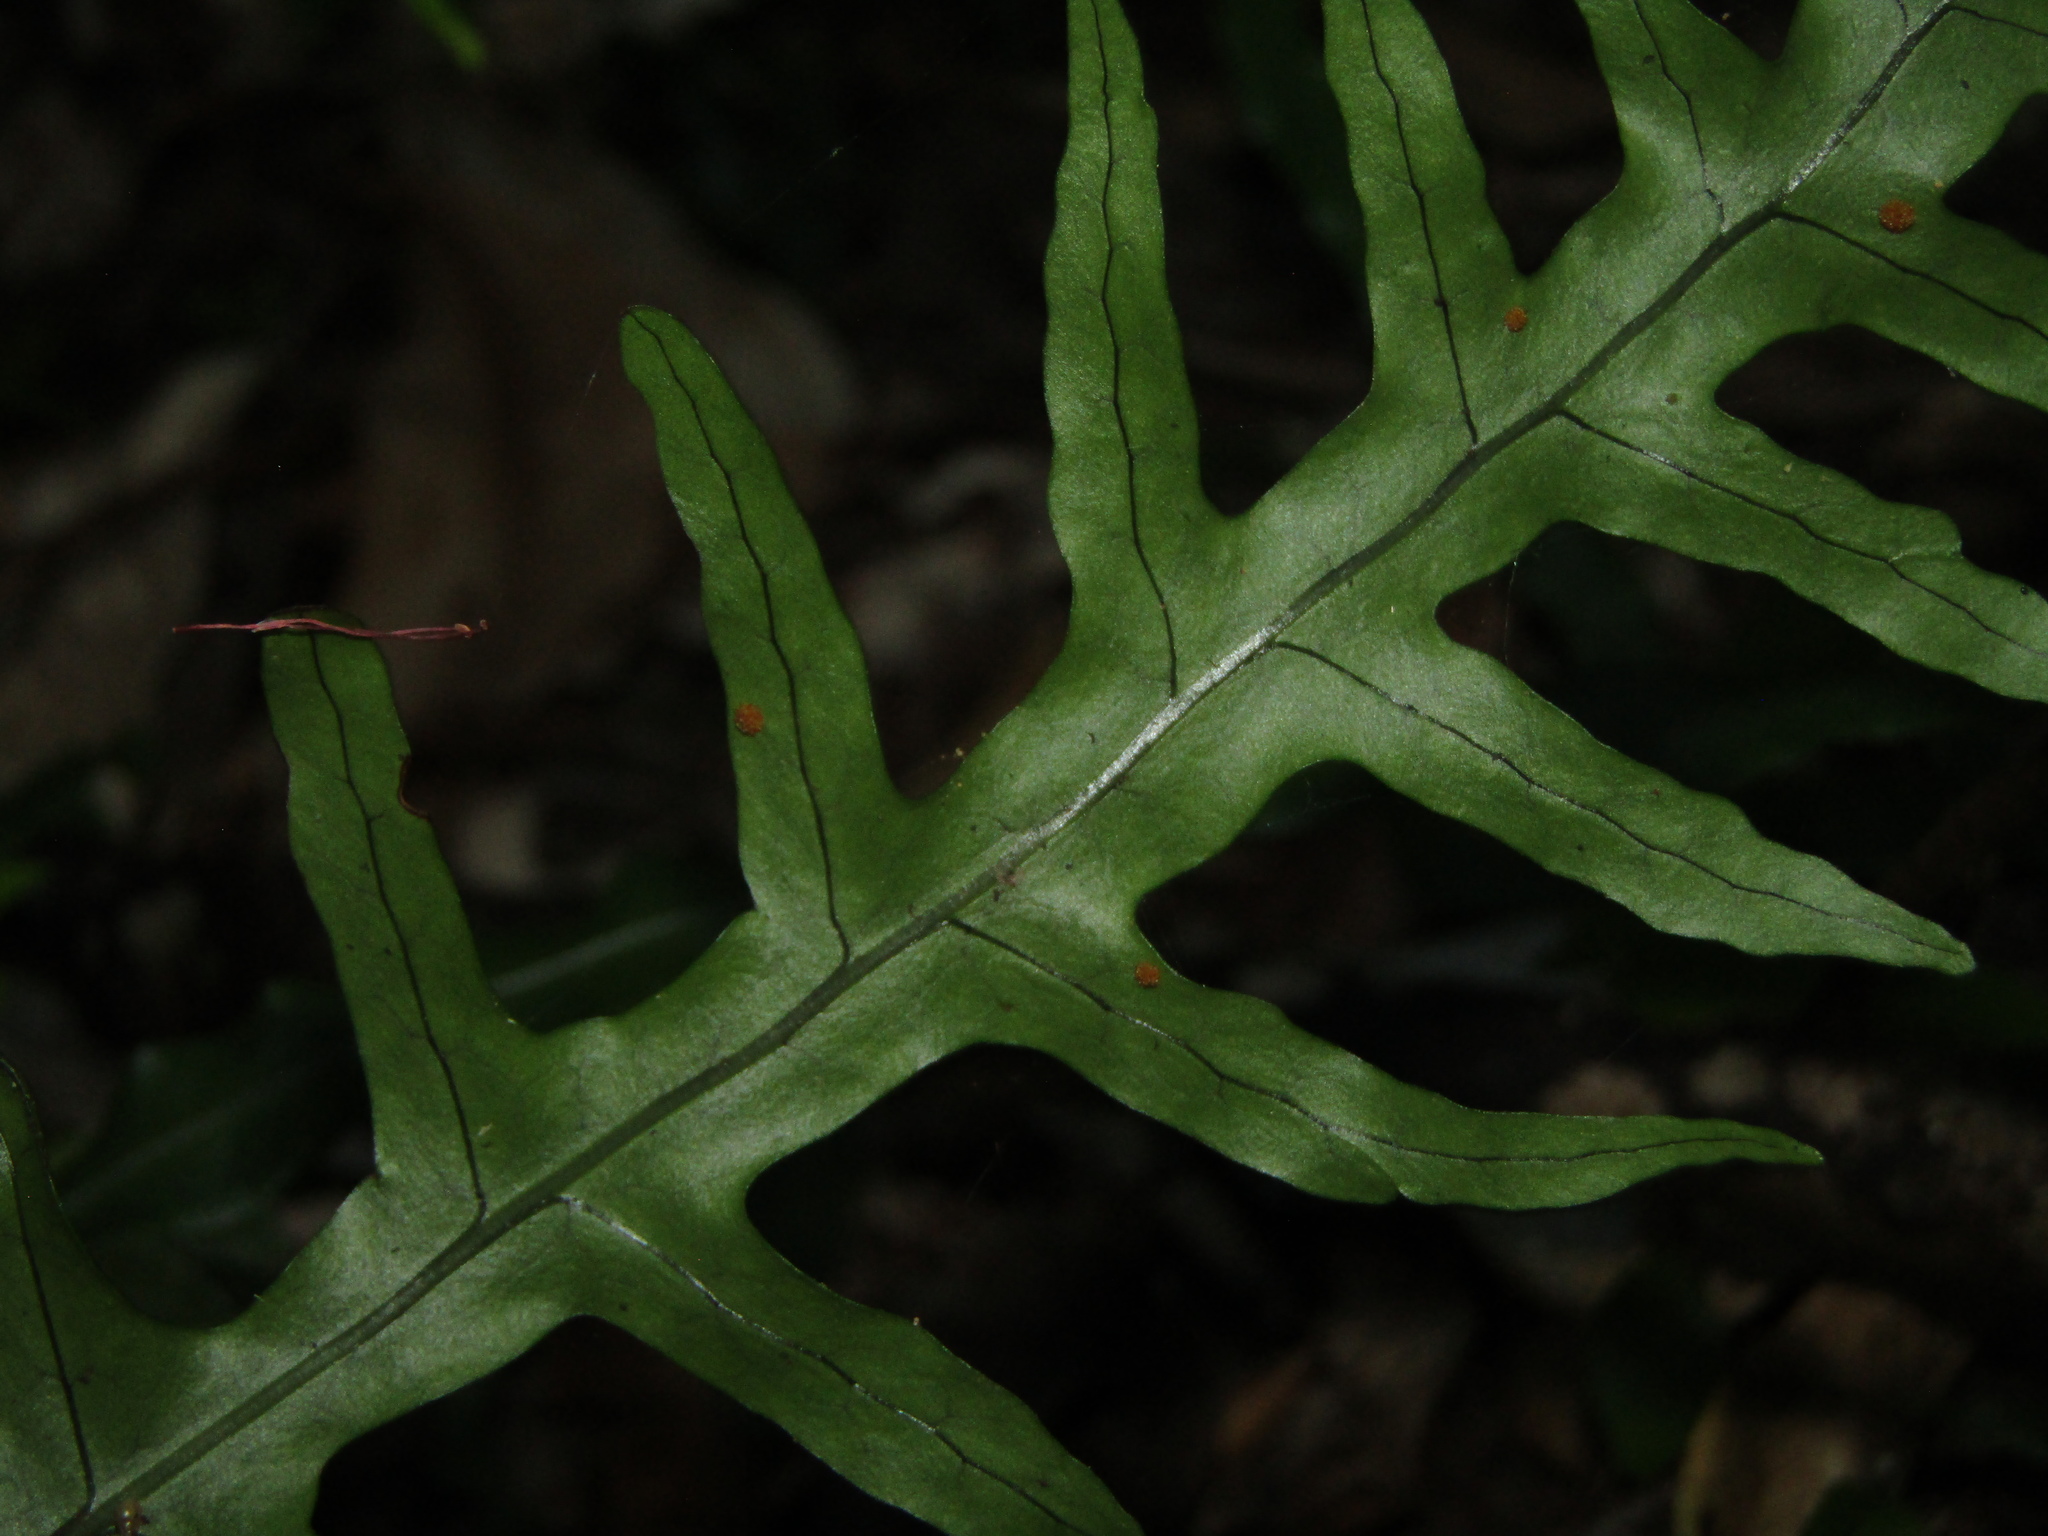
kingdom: Plantae
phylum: Tracheophyta
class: Polypodiopsida
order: Polypodiales
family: Polypodiaceae
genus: Lecanopteris
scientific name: Lecanopteris scandens
